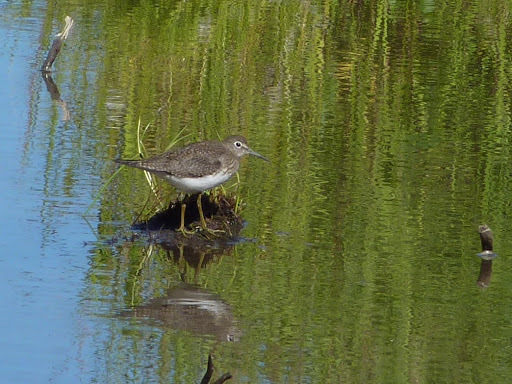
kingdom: Animalia
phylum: Chordata
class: Aves
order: Charadriiformes
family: Scolopacidae
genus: Tringa
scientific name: Tringa solitaria
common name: Solitary sandpiper
